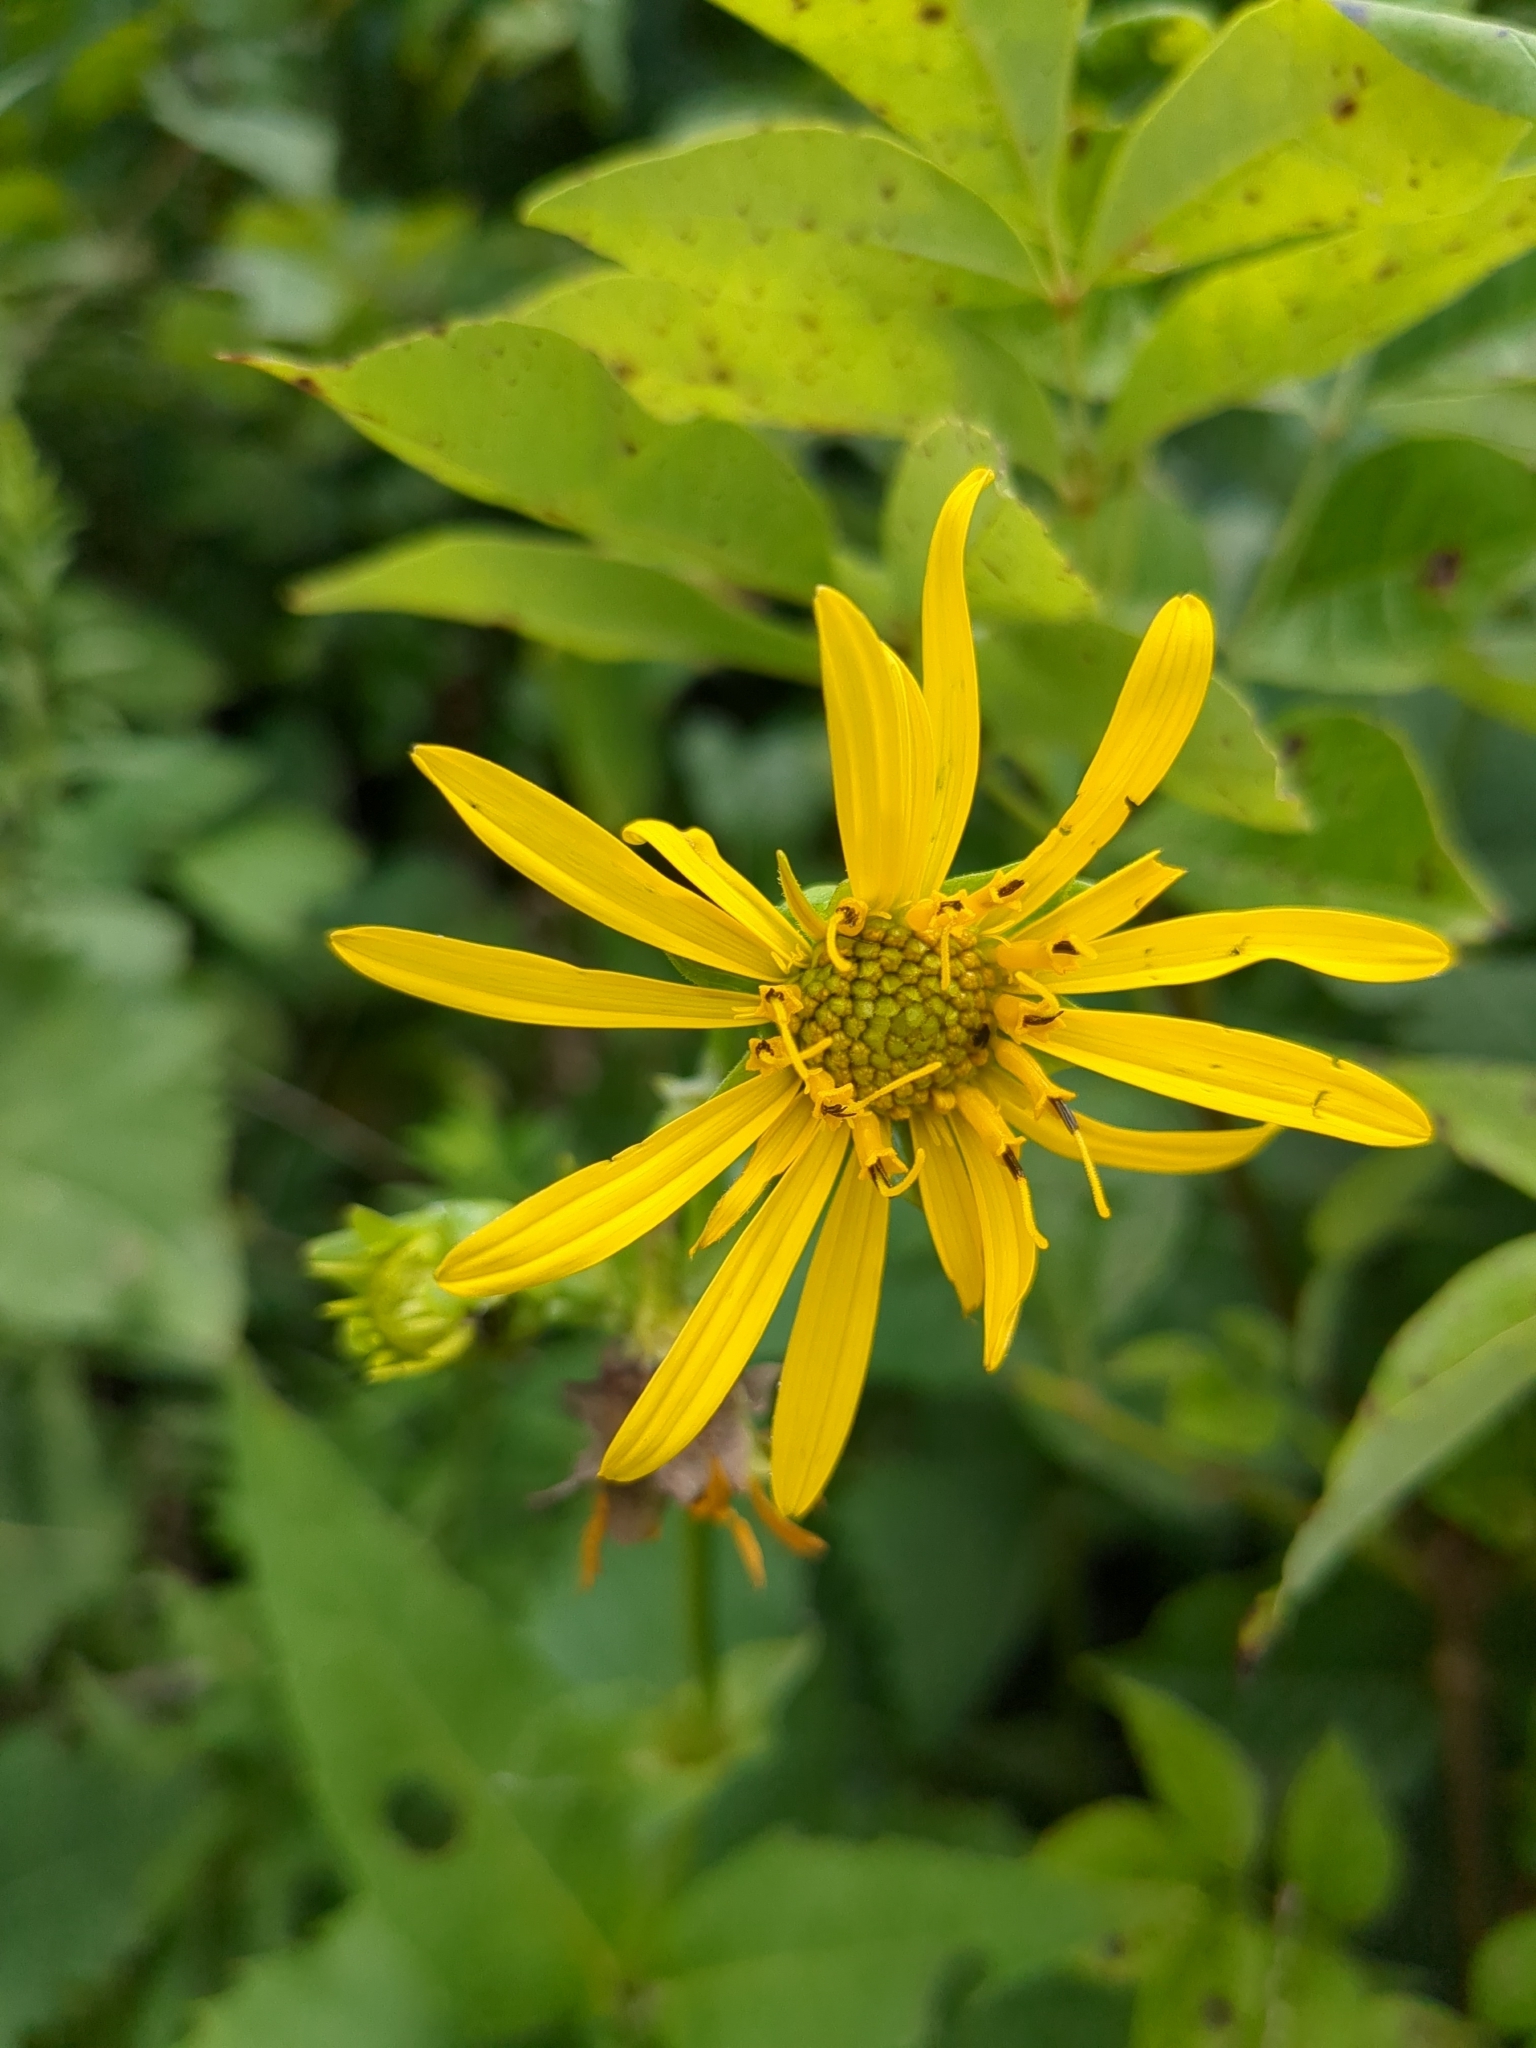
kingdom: Plantae
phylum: Tracheophyta
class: Magnoliopsida
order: Asterales
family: Asteraceae
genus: Rudbeckia
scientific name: Rudbeckia laciniata
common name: Coneflower
